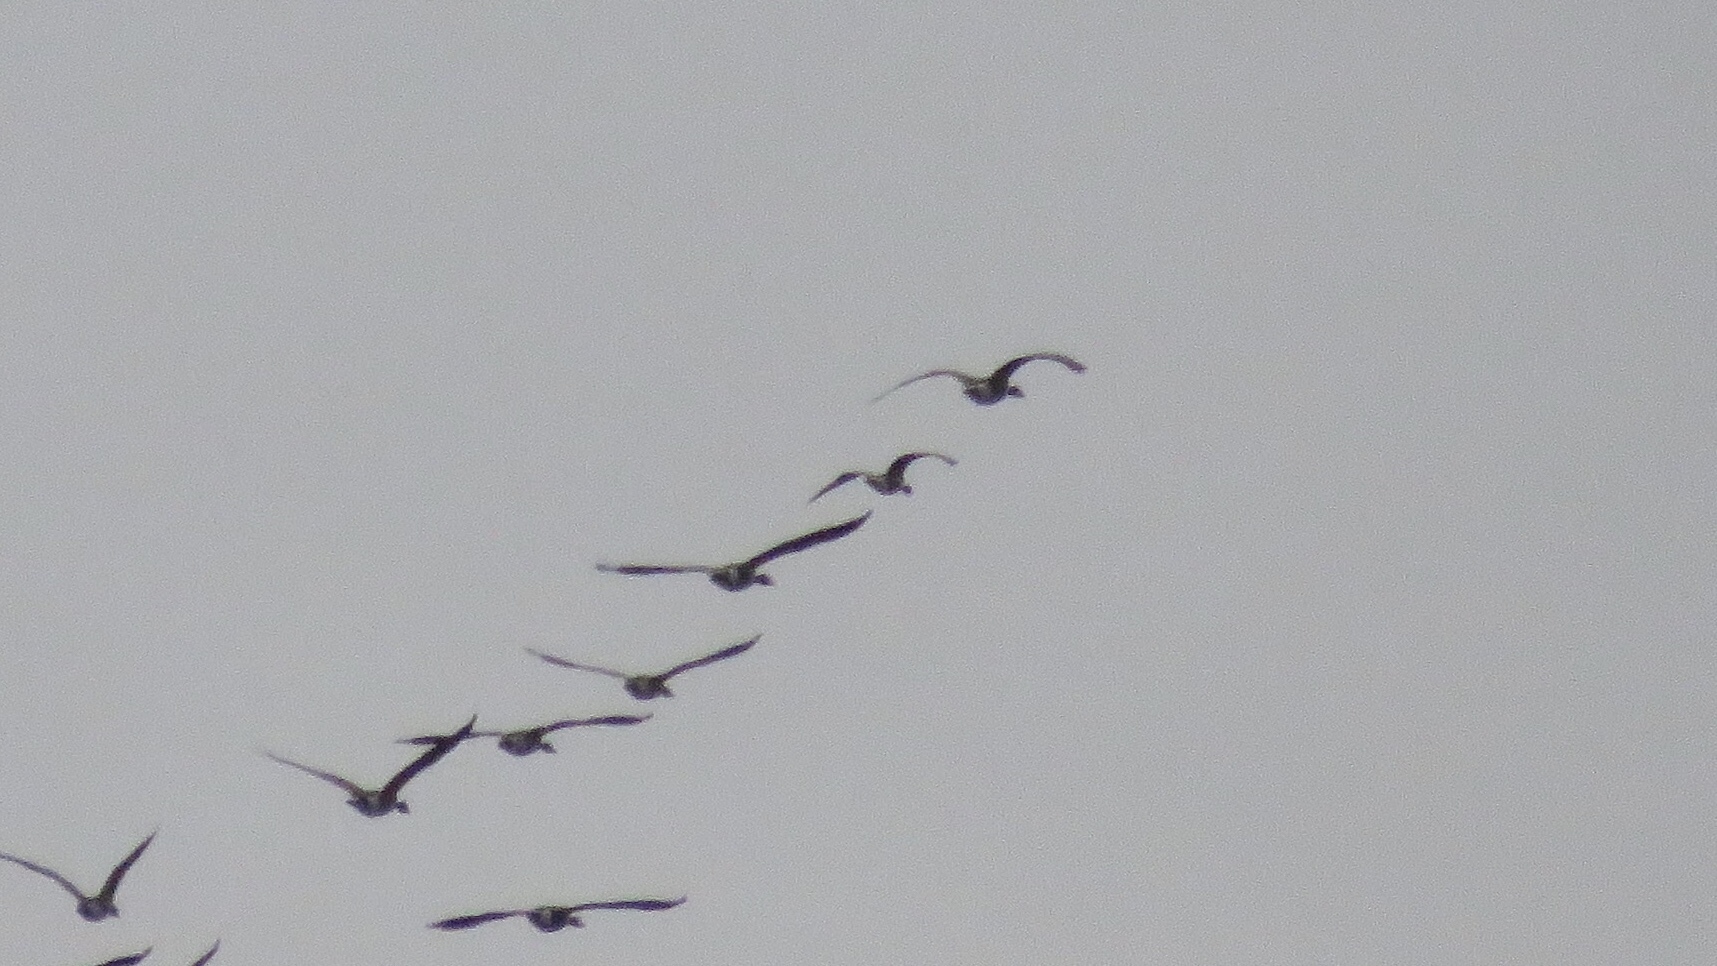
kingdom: Animalia
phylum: Chordata
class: Aves
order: Anseriformes
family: Anatidae
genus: Branta
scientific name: Branta hutchinsii
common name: Cackling goose
